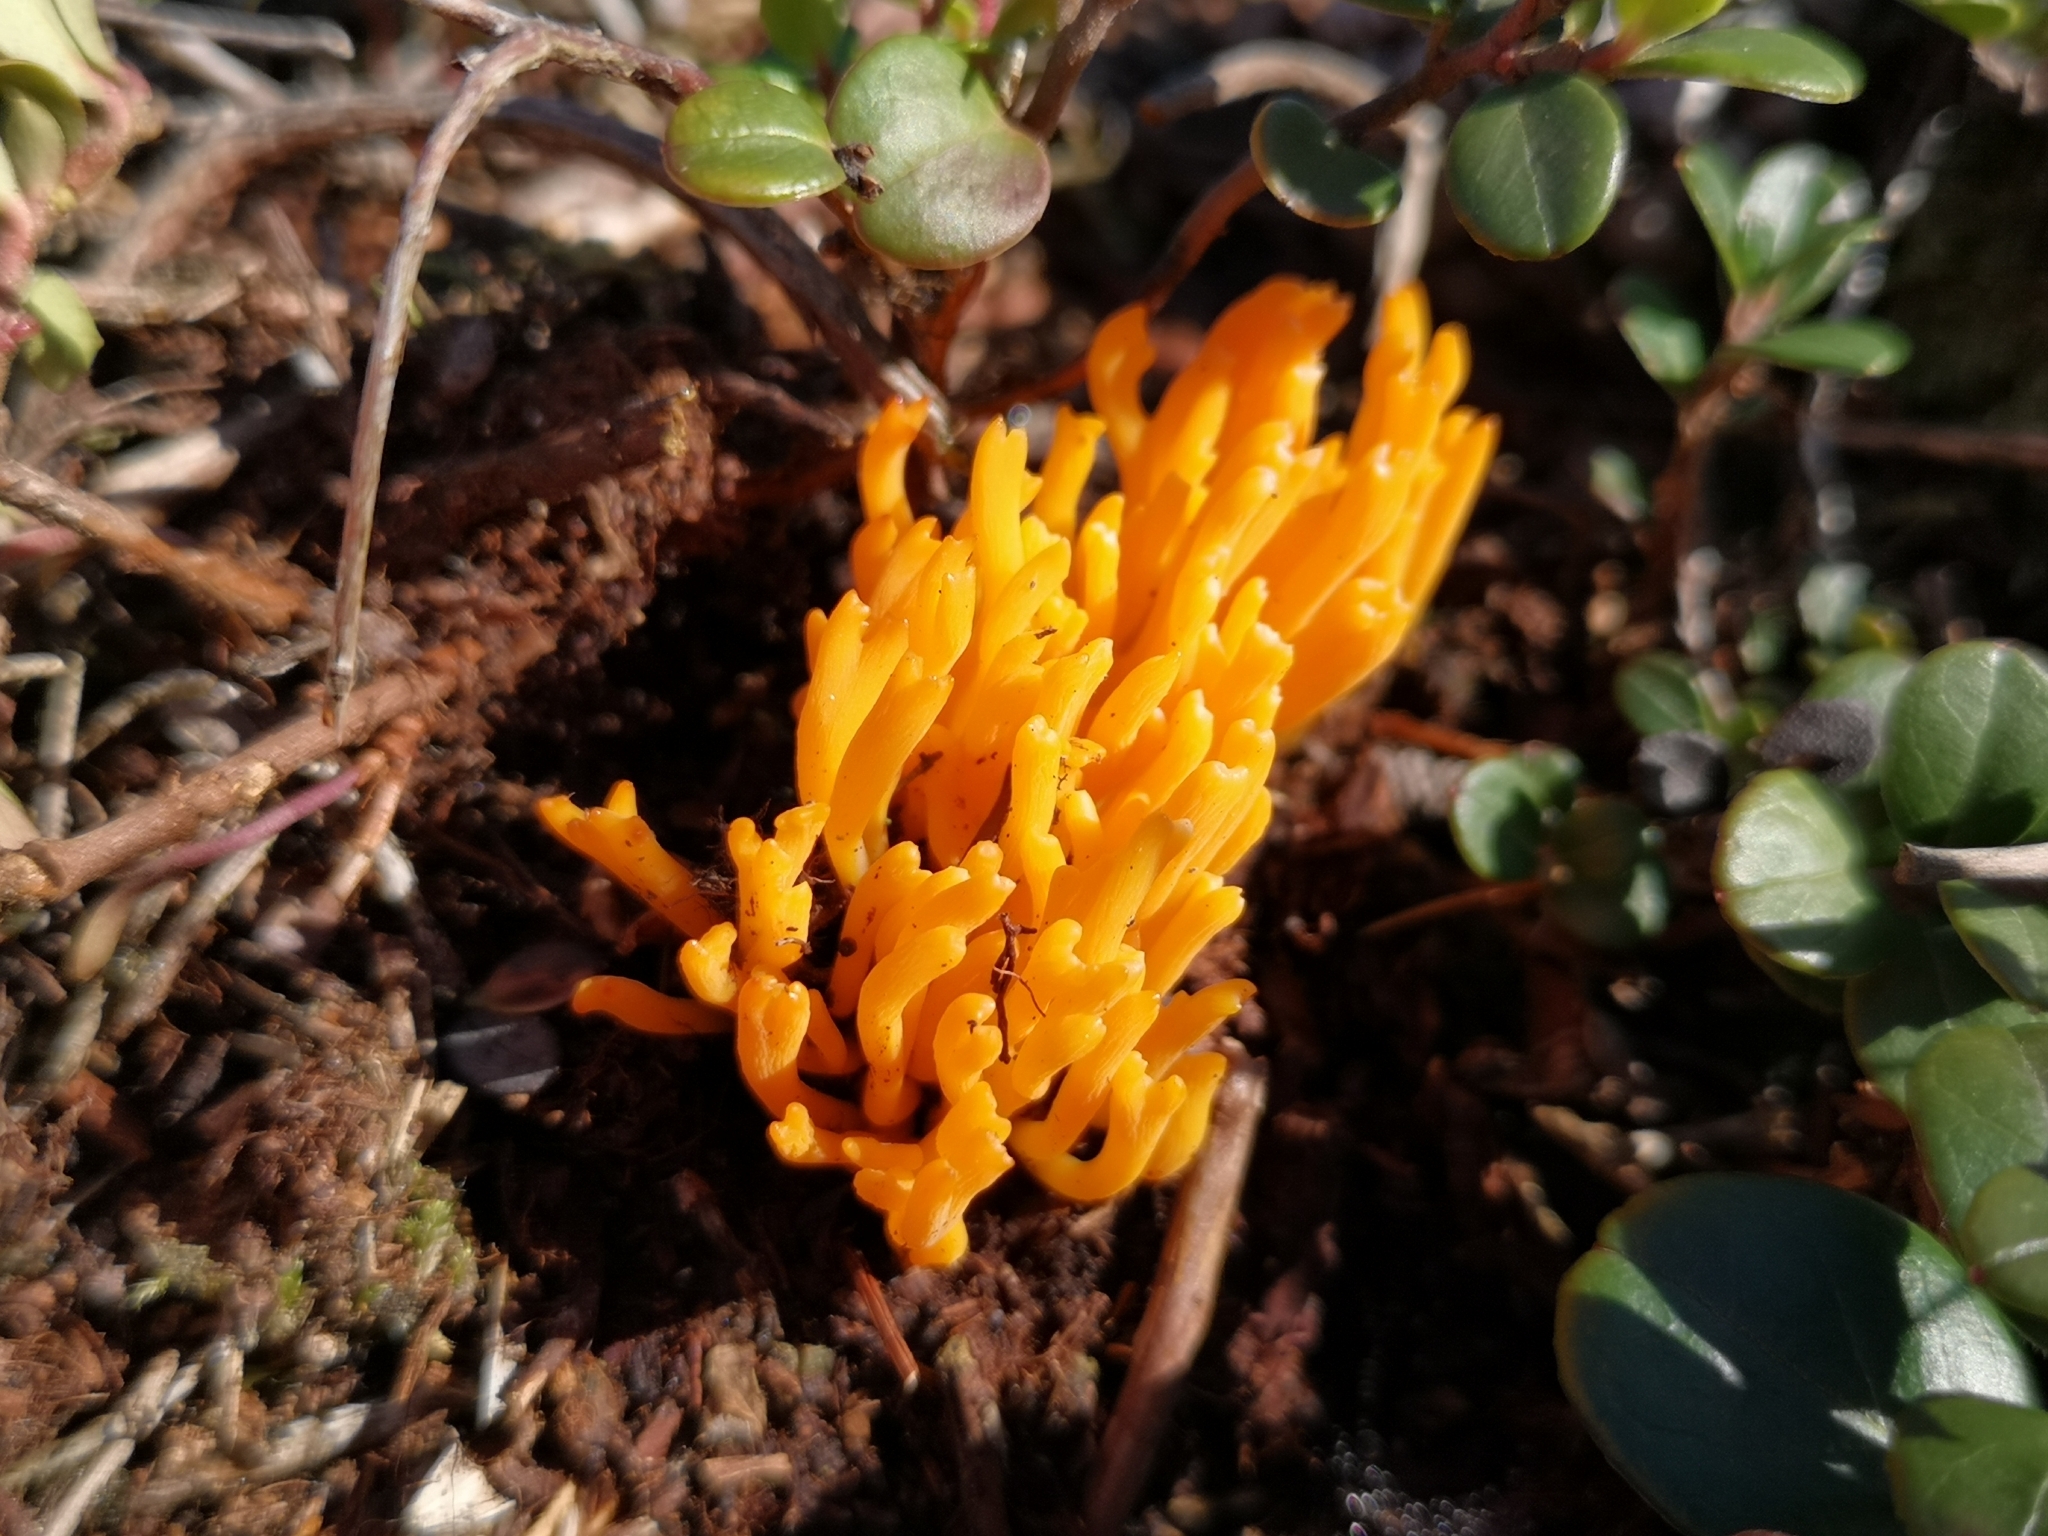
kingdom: Fungi
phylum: Basidiomycota
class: Dacrymycetes
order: Dacrymycetales
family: Dacrymycetaceae
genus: Calocera
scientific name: Calocera viscosa
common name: Yellow stagshorn
